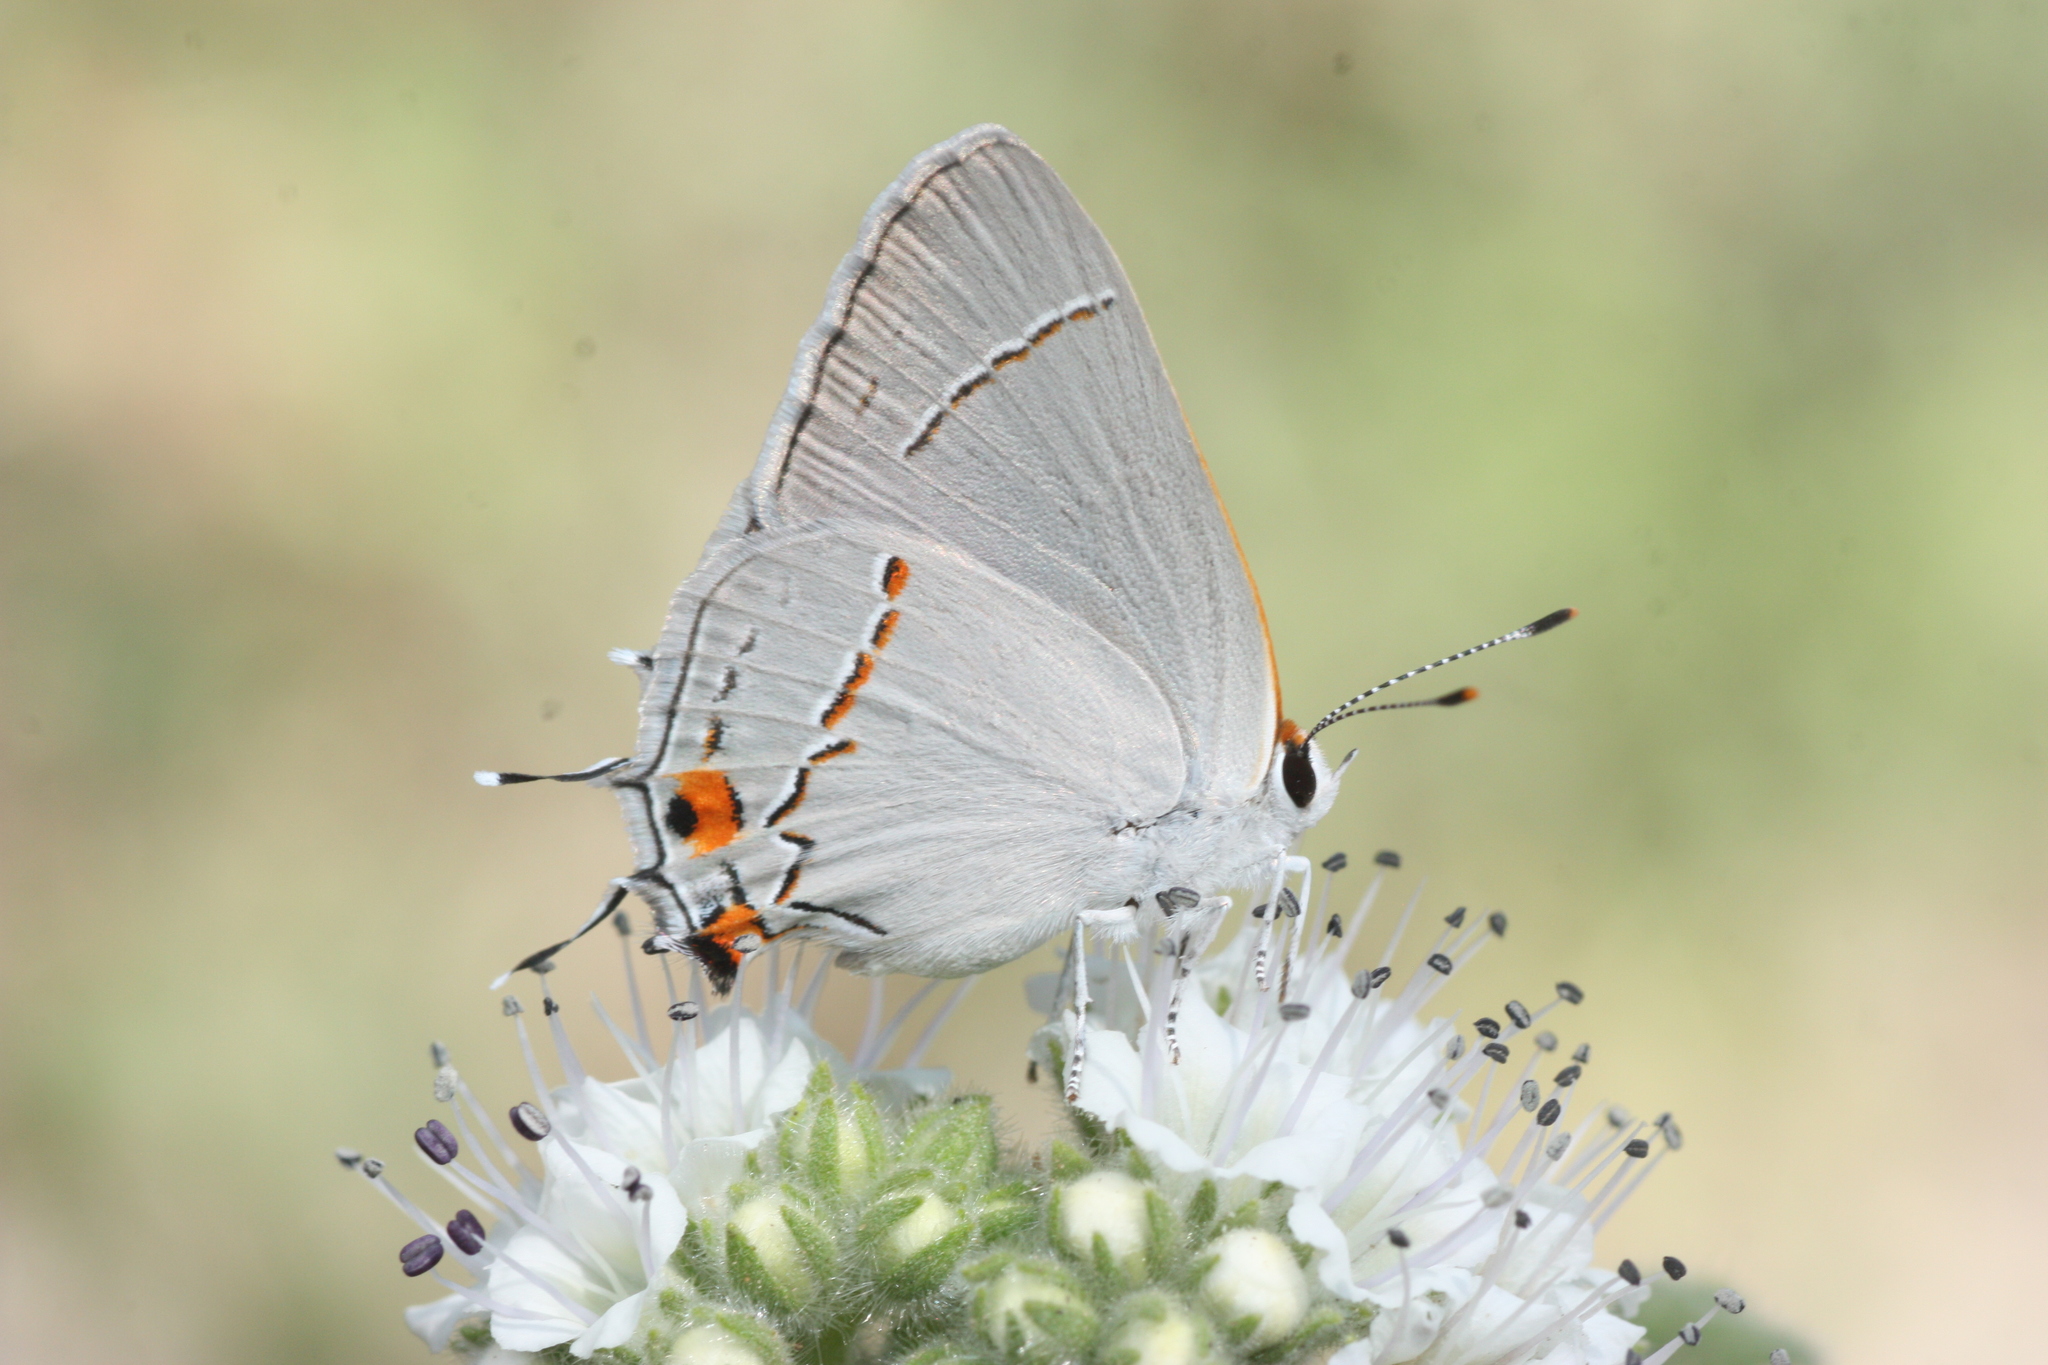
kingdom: Animalia
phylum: Arthropoda
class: Insecta
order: Lepidoptera
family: Lycaenidae
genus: Strymon
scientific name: Strymon melinus
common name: Gray hairstreak
